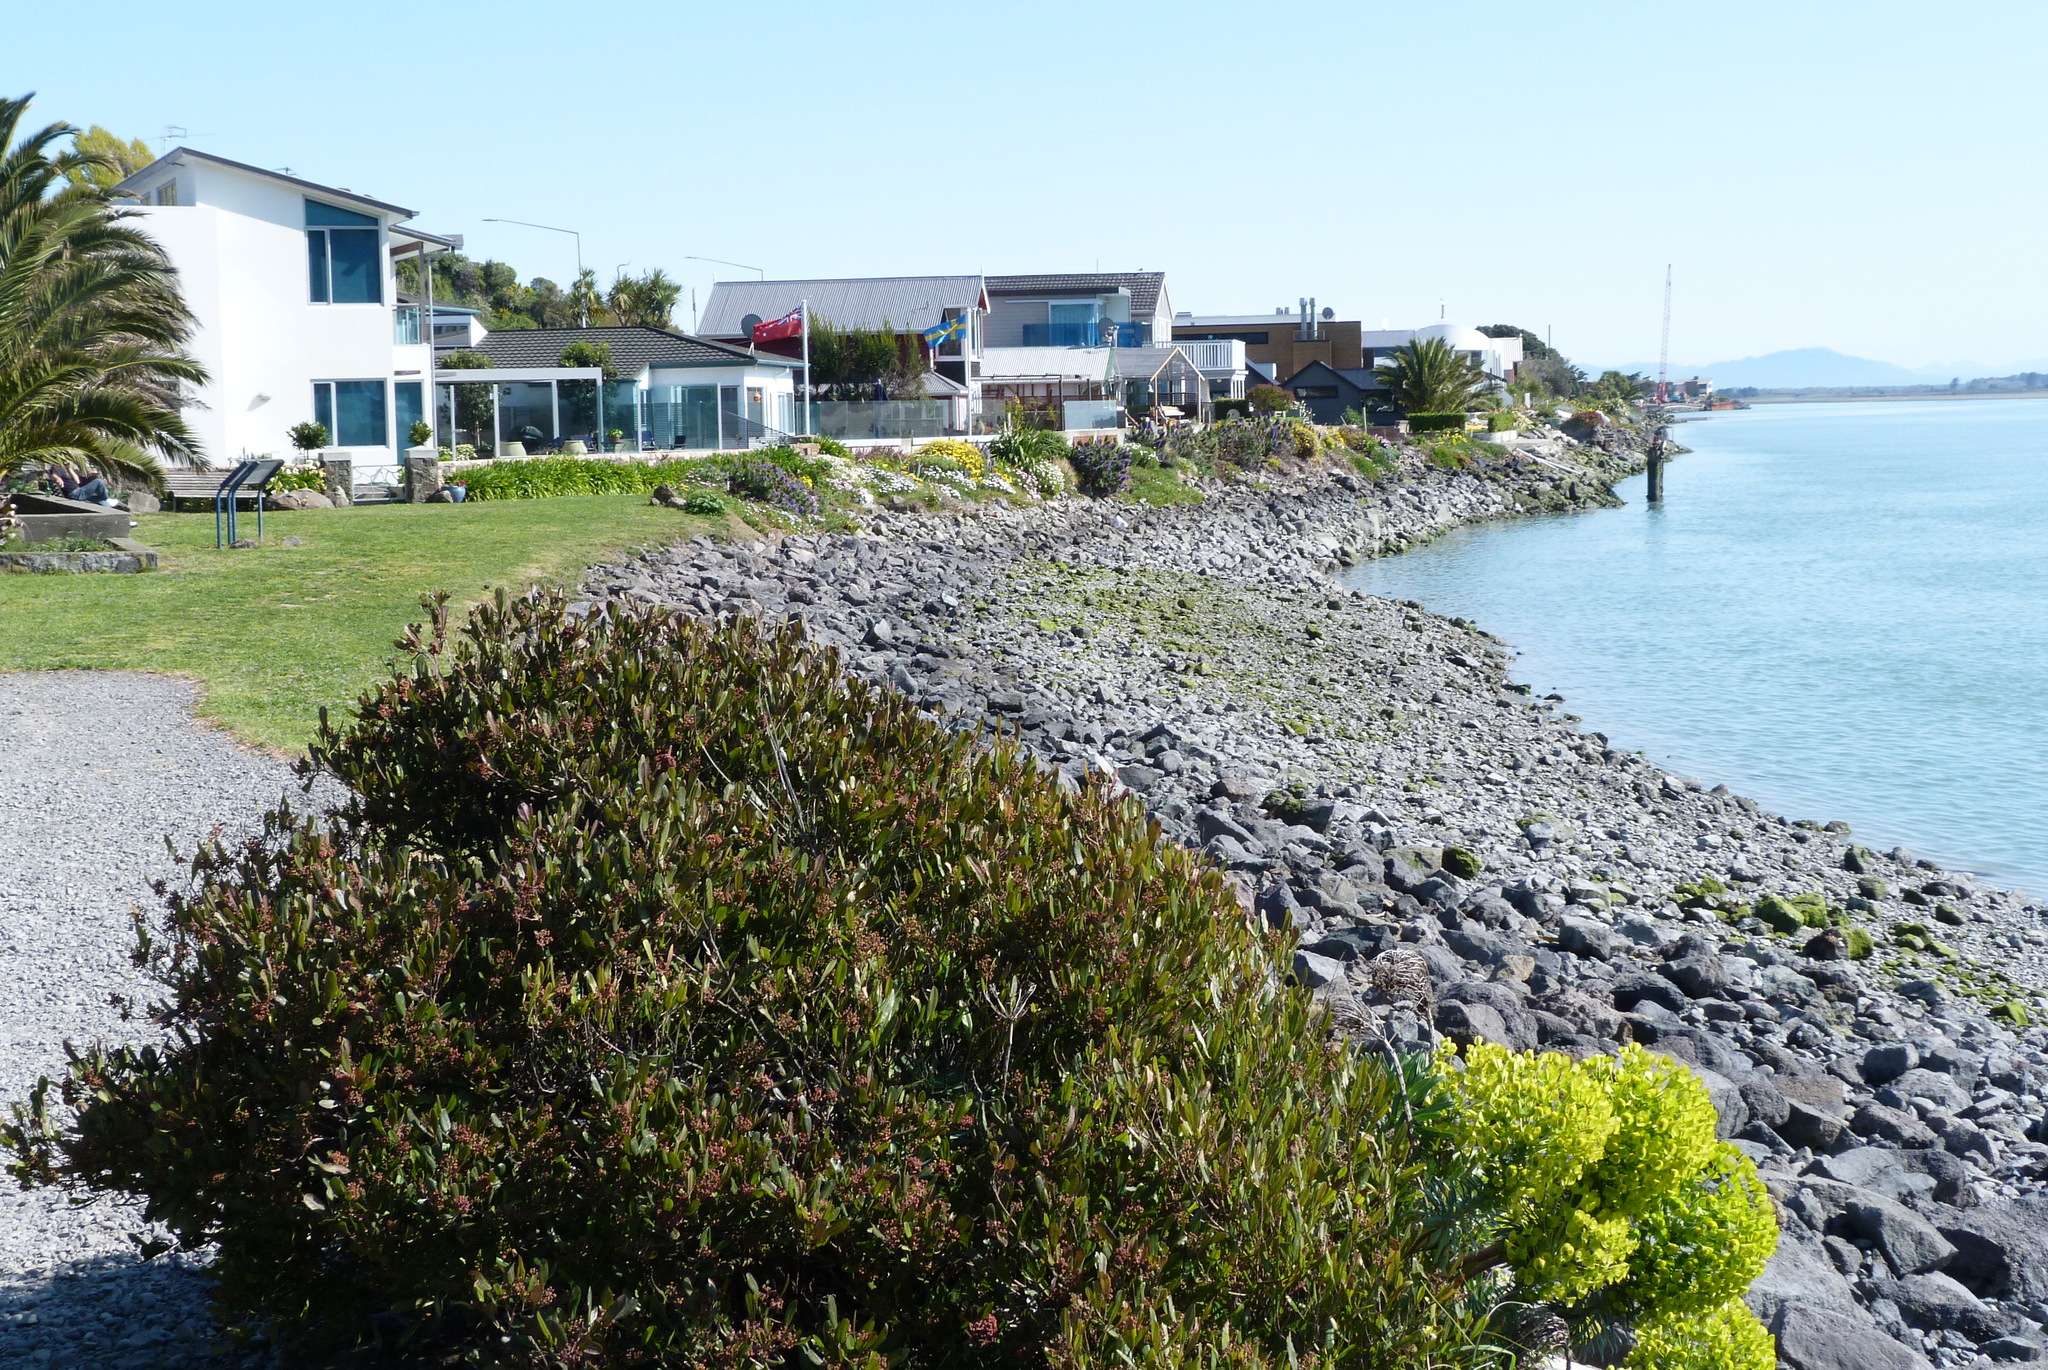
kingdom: Plantae
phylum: Tracheophyta
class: Magnoliopsida
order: Malpighiales
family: Euphorbiaceae
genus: Euphorbia
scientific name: Euphorbia characias
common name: Mediterranean spurge
